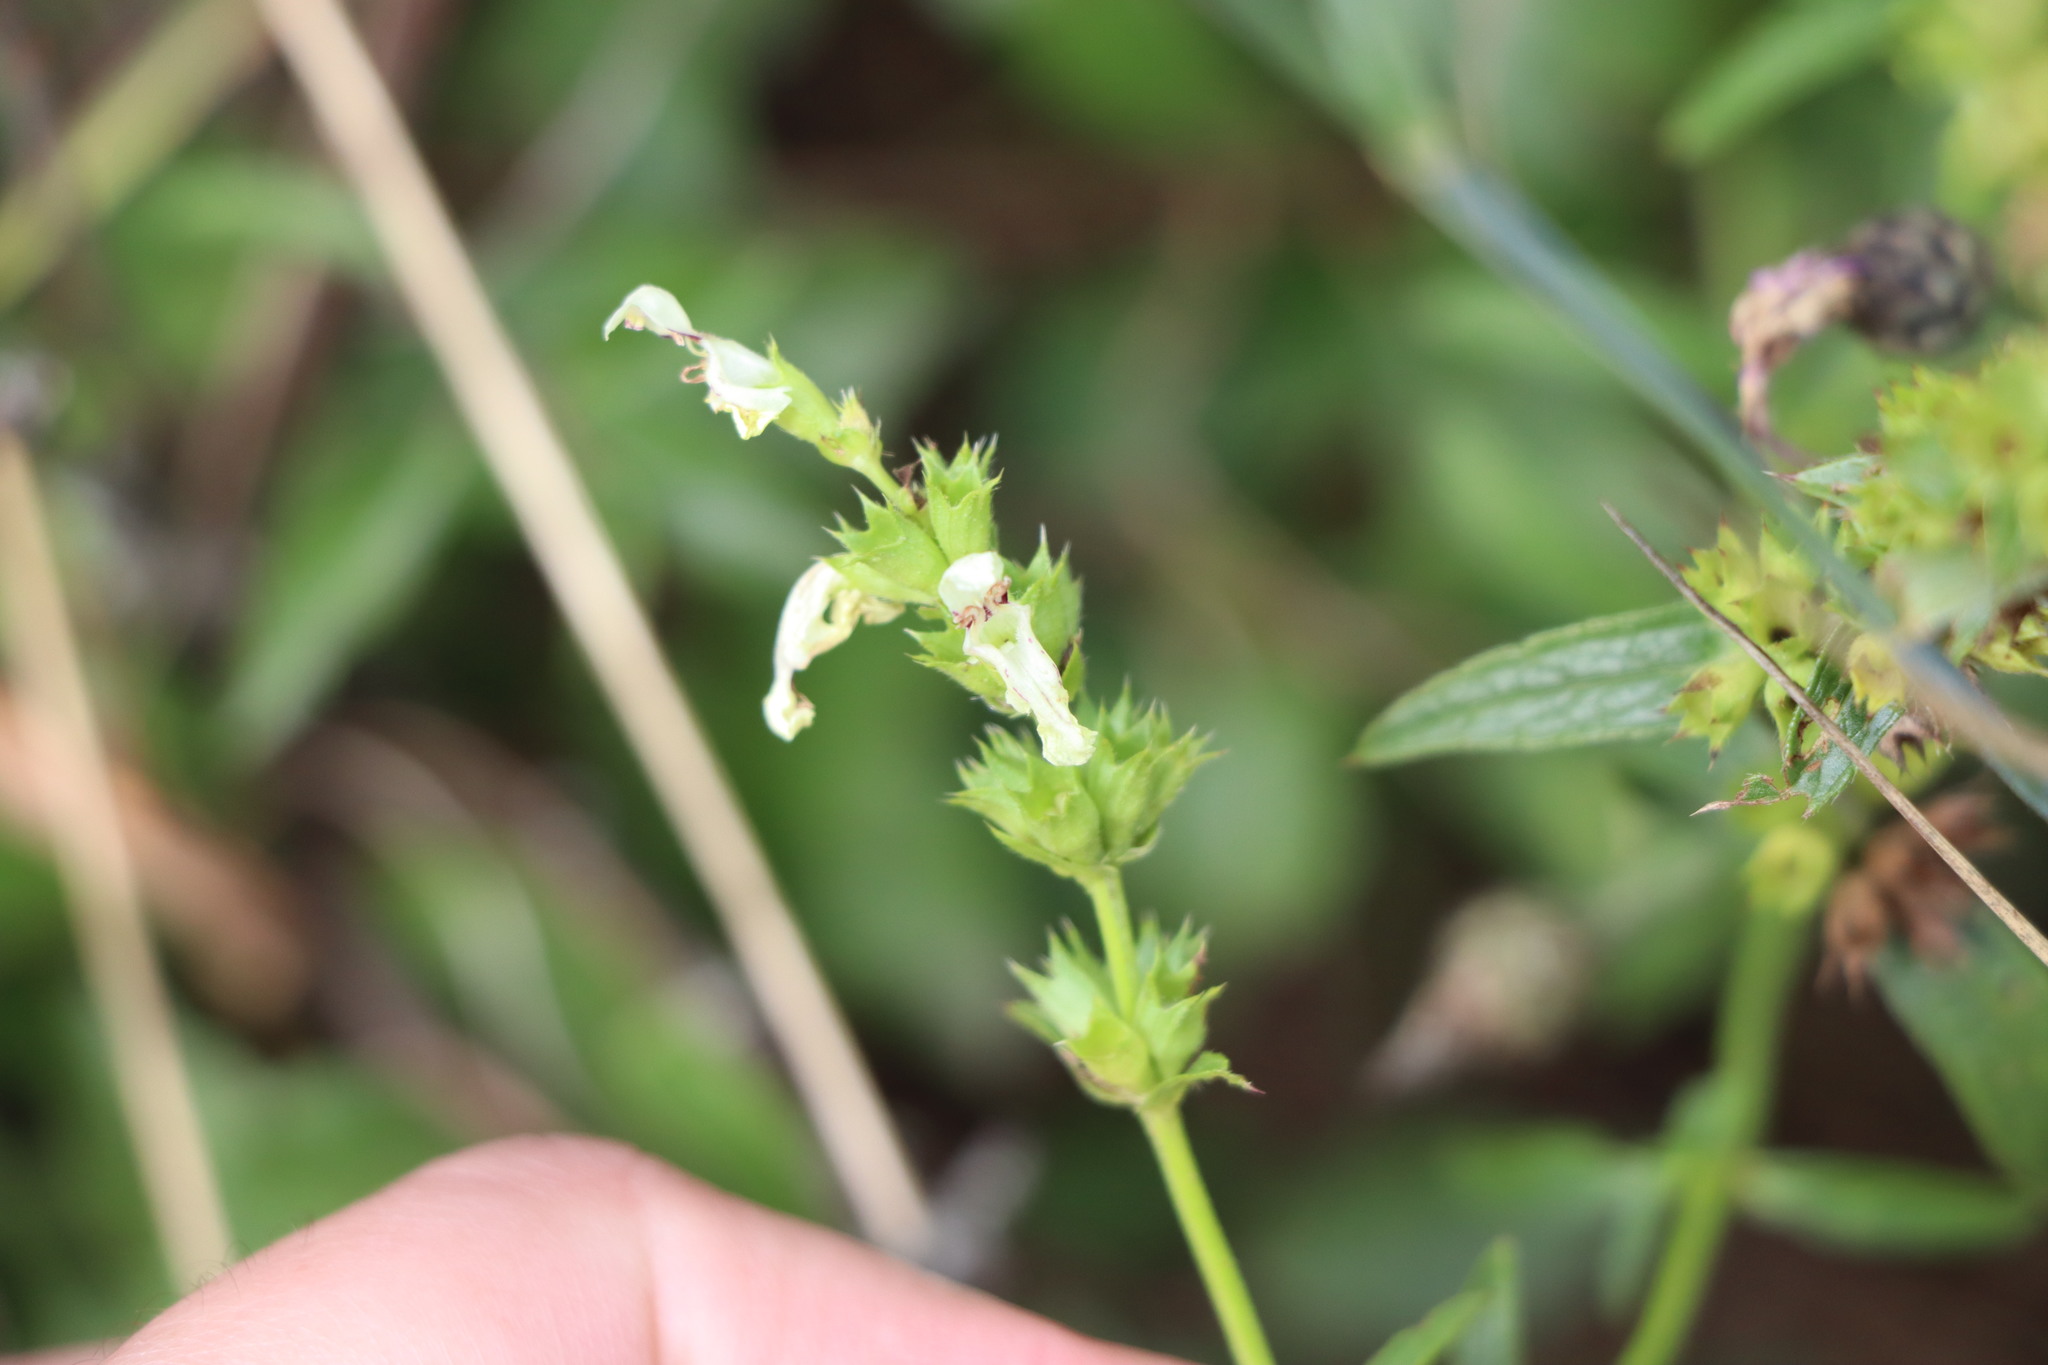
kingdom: Plantae
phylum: Tracheophyta
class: Magnoliopsida
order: Lamiales
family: Lamiaceae
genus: Stachys
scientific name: Stachys recta
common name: Perennial yellow-woundwort
